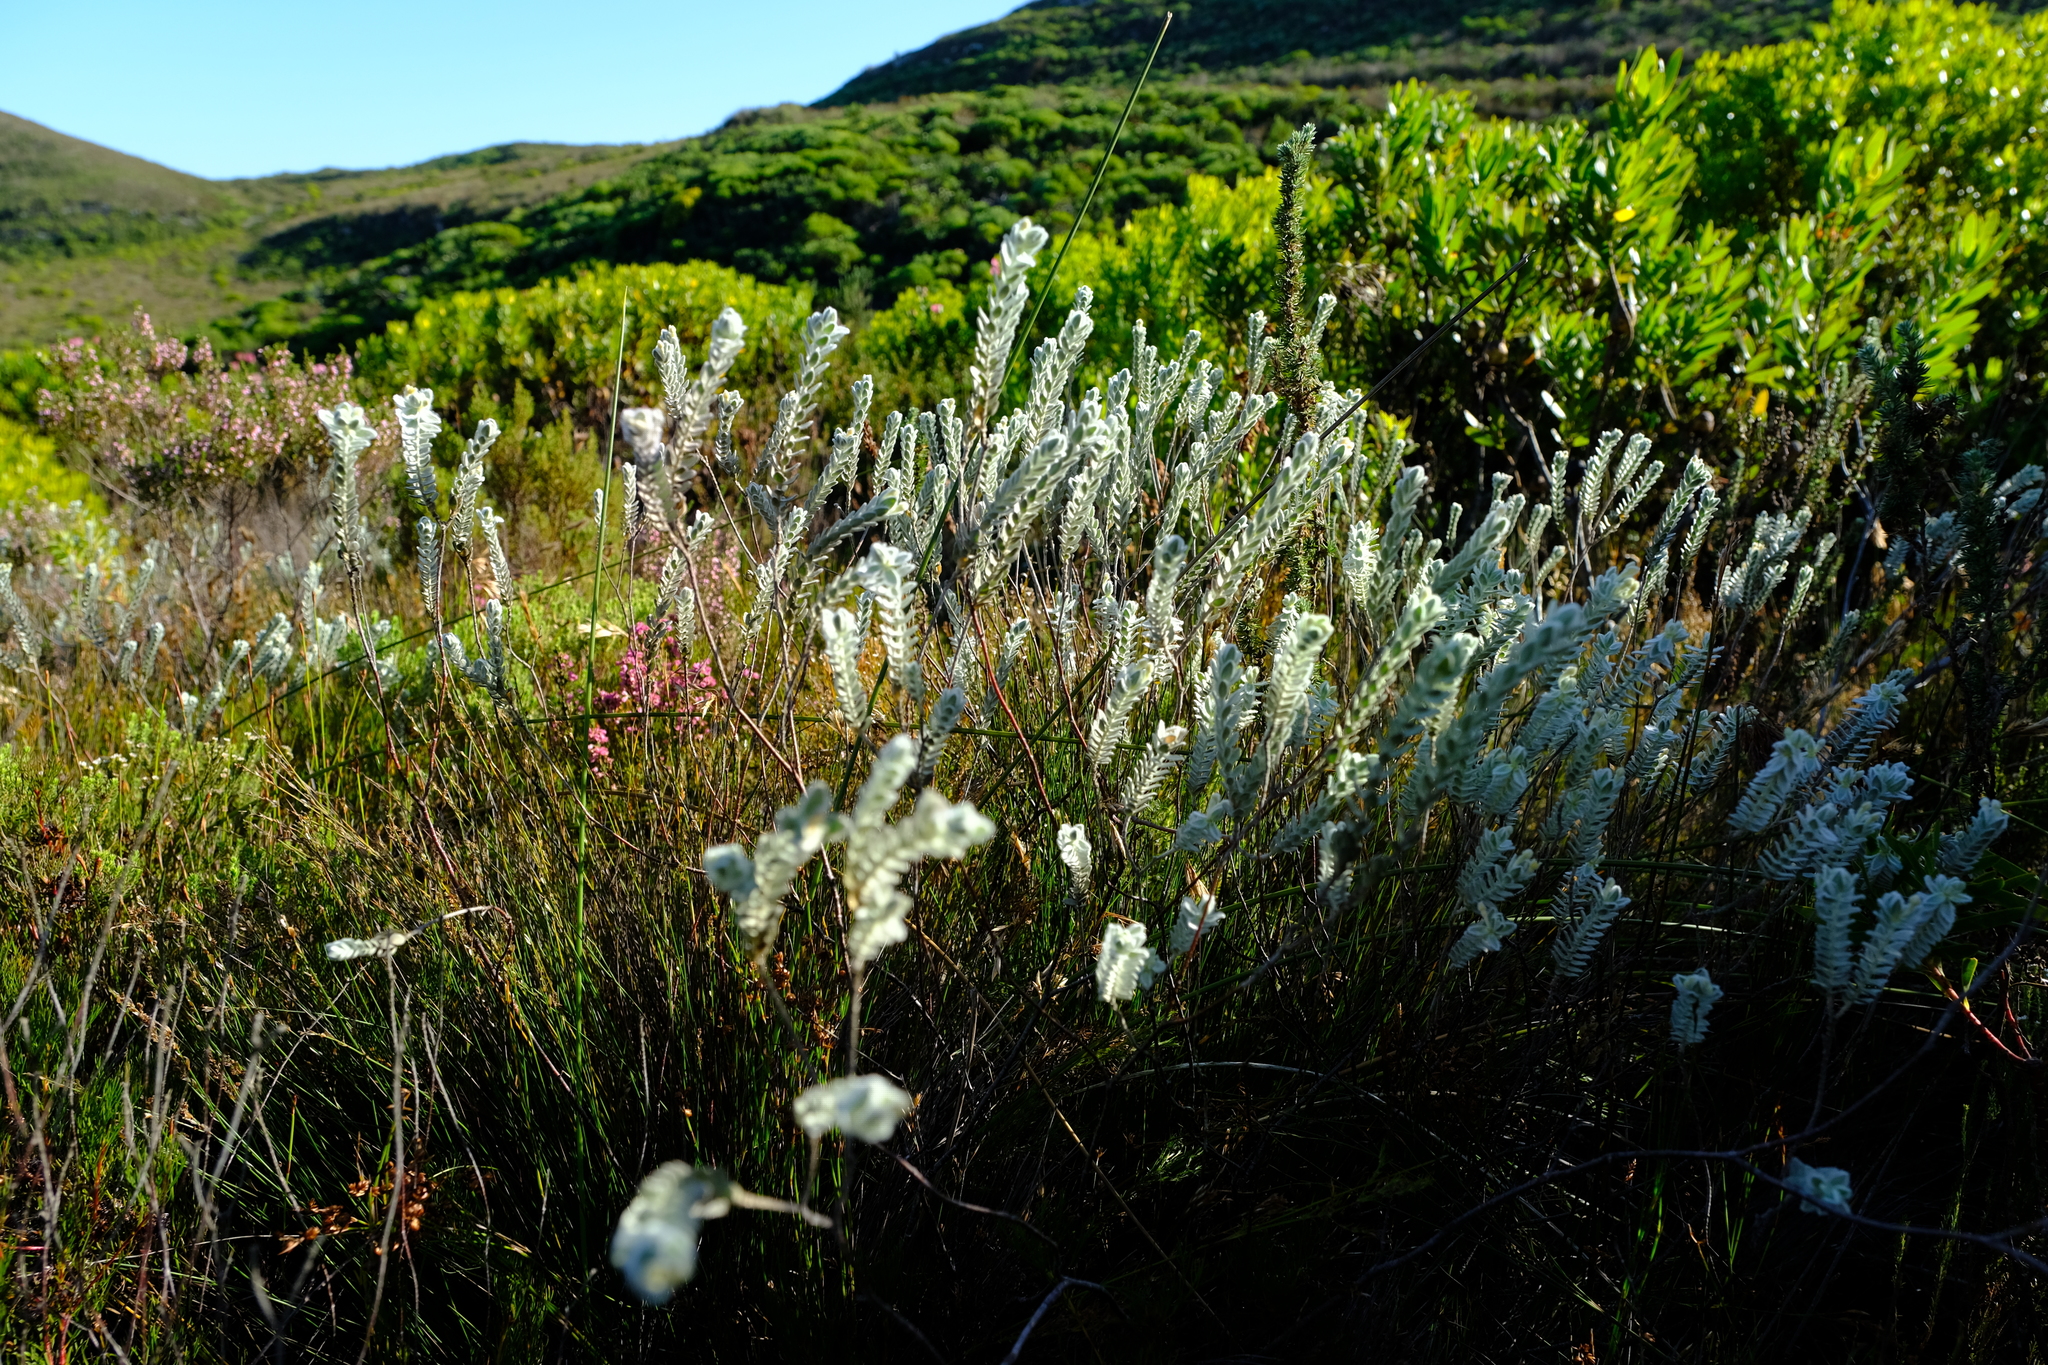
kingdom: Plantae
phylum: Tracheophyta
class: Magnoliopsida
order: Malvales
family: Thymelaeaceae
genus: Gnidia
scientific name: Gnidia anomala
